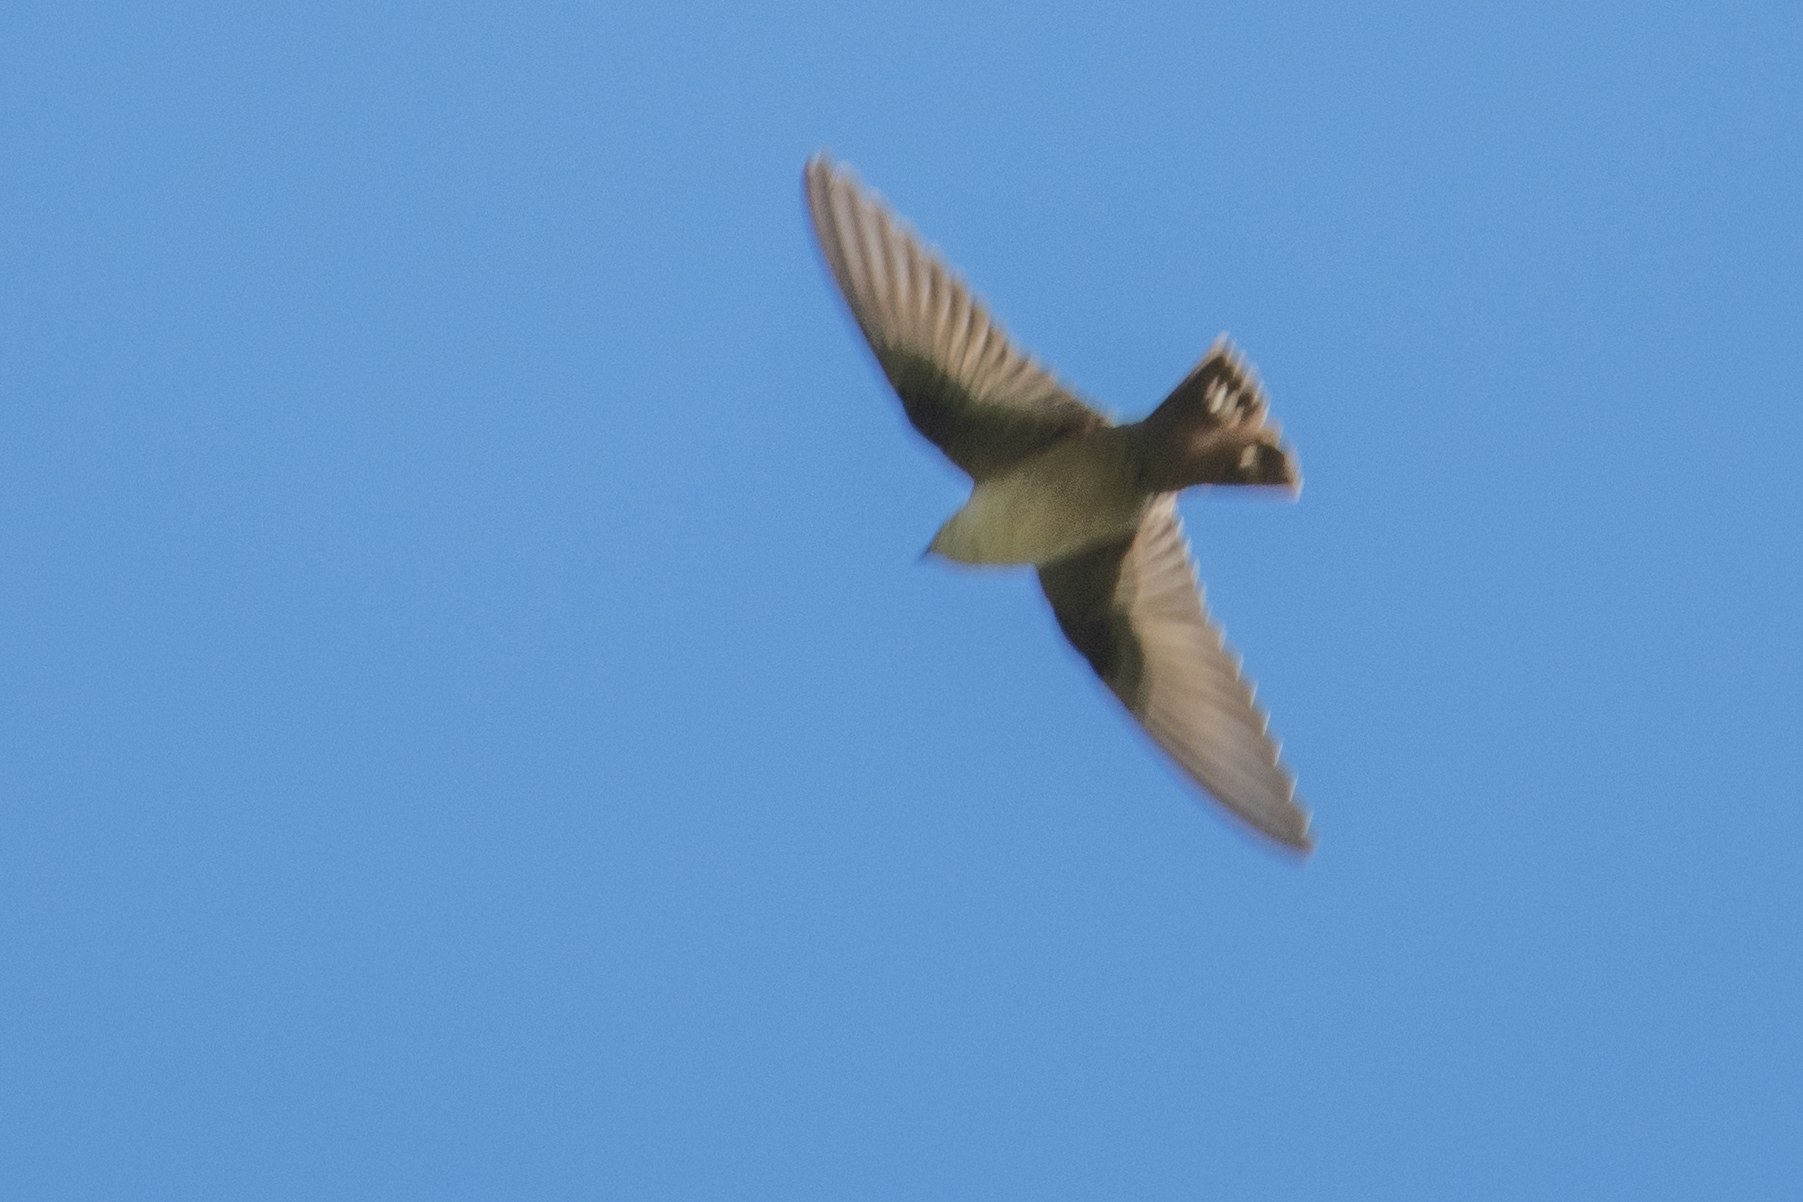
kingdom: Animalia
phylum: Chordata
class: Aves
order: Passeriformes
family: Hirundinidae
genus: Ptyonoprogne
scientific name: Ptyonoprogne rupestris
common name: Eurasian crag martin
